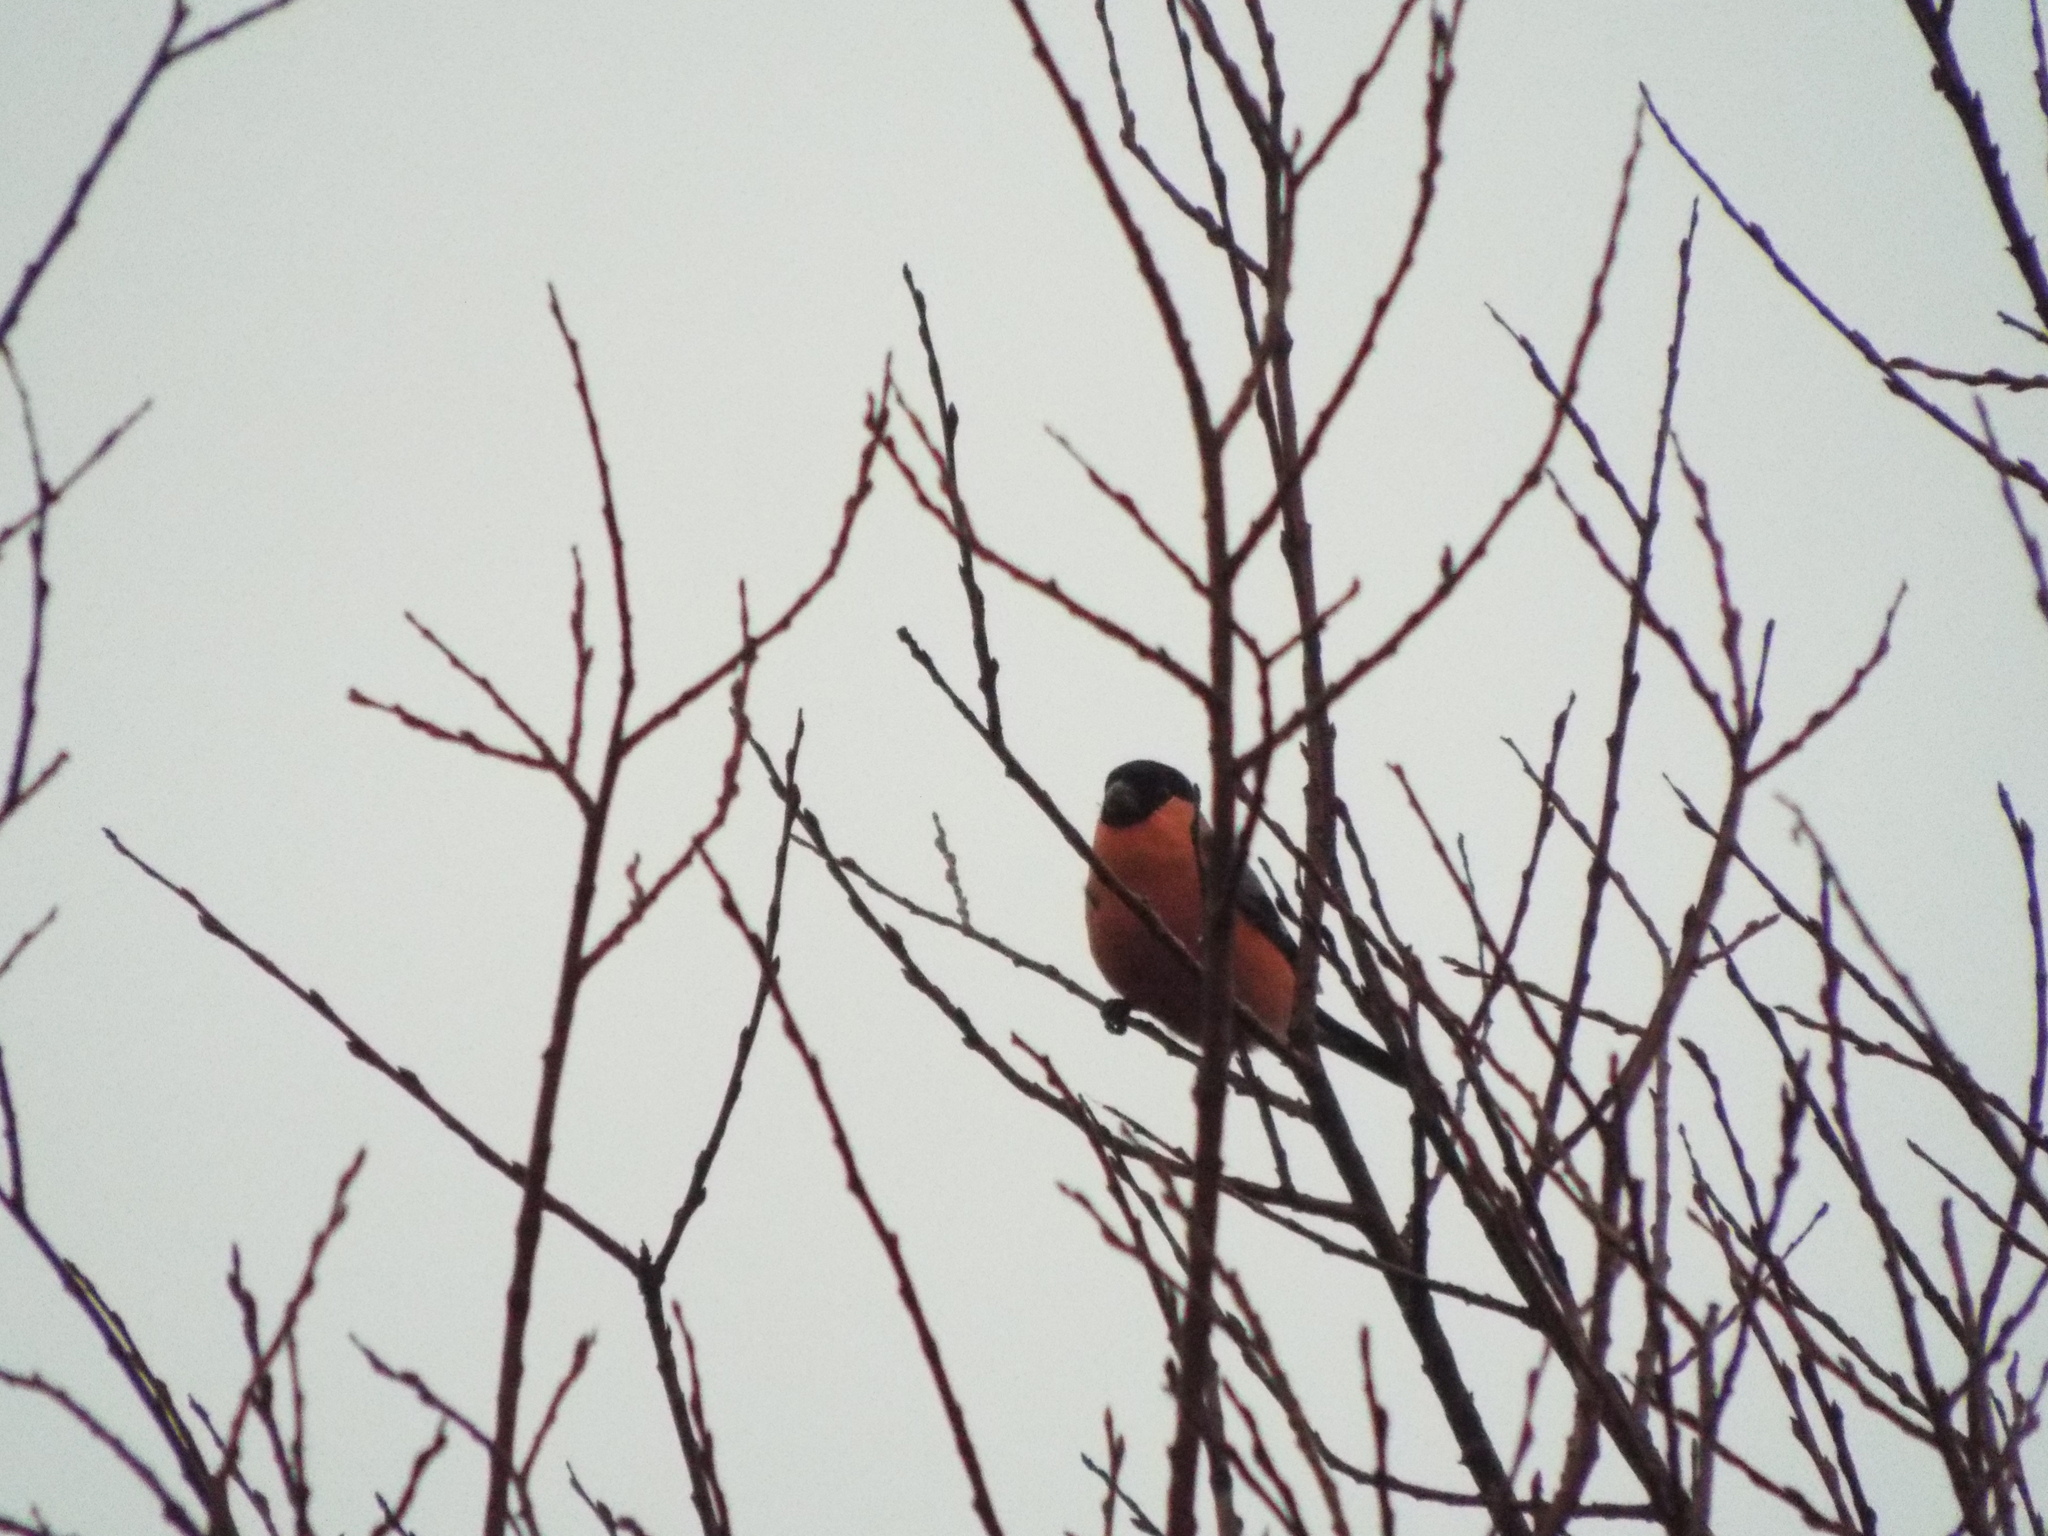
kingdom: Animalia
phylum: Chordata
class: Aves
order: Passeriformes
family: Fringillidae
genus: Pyrrhula
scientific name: Pyrrhula pyrrhula
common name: Eurasian bullfinch
